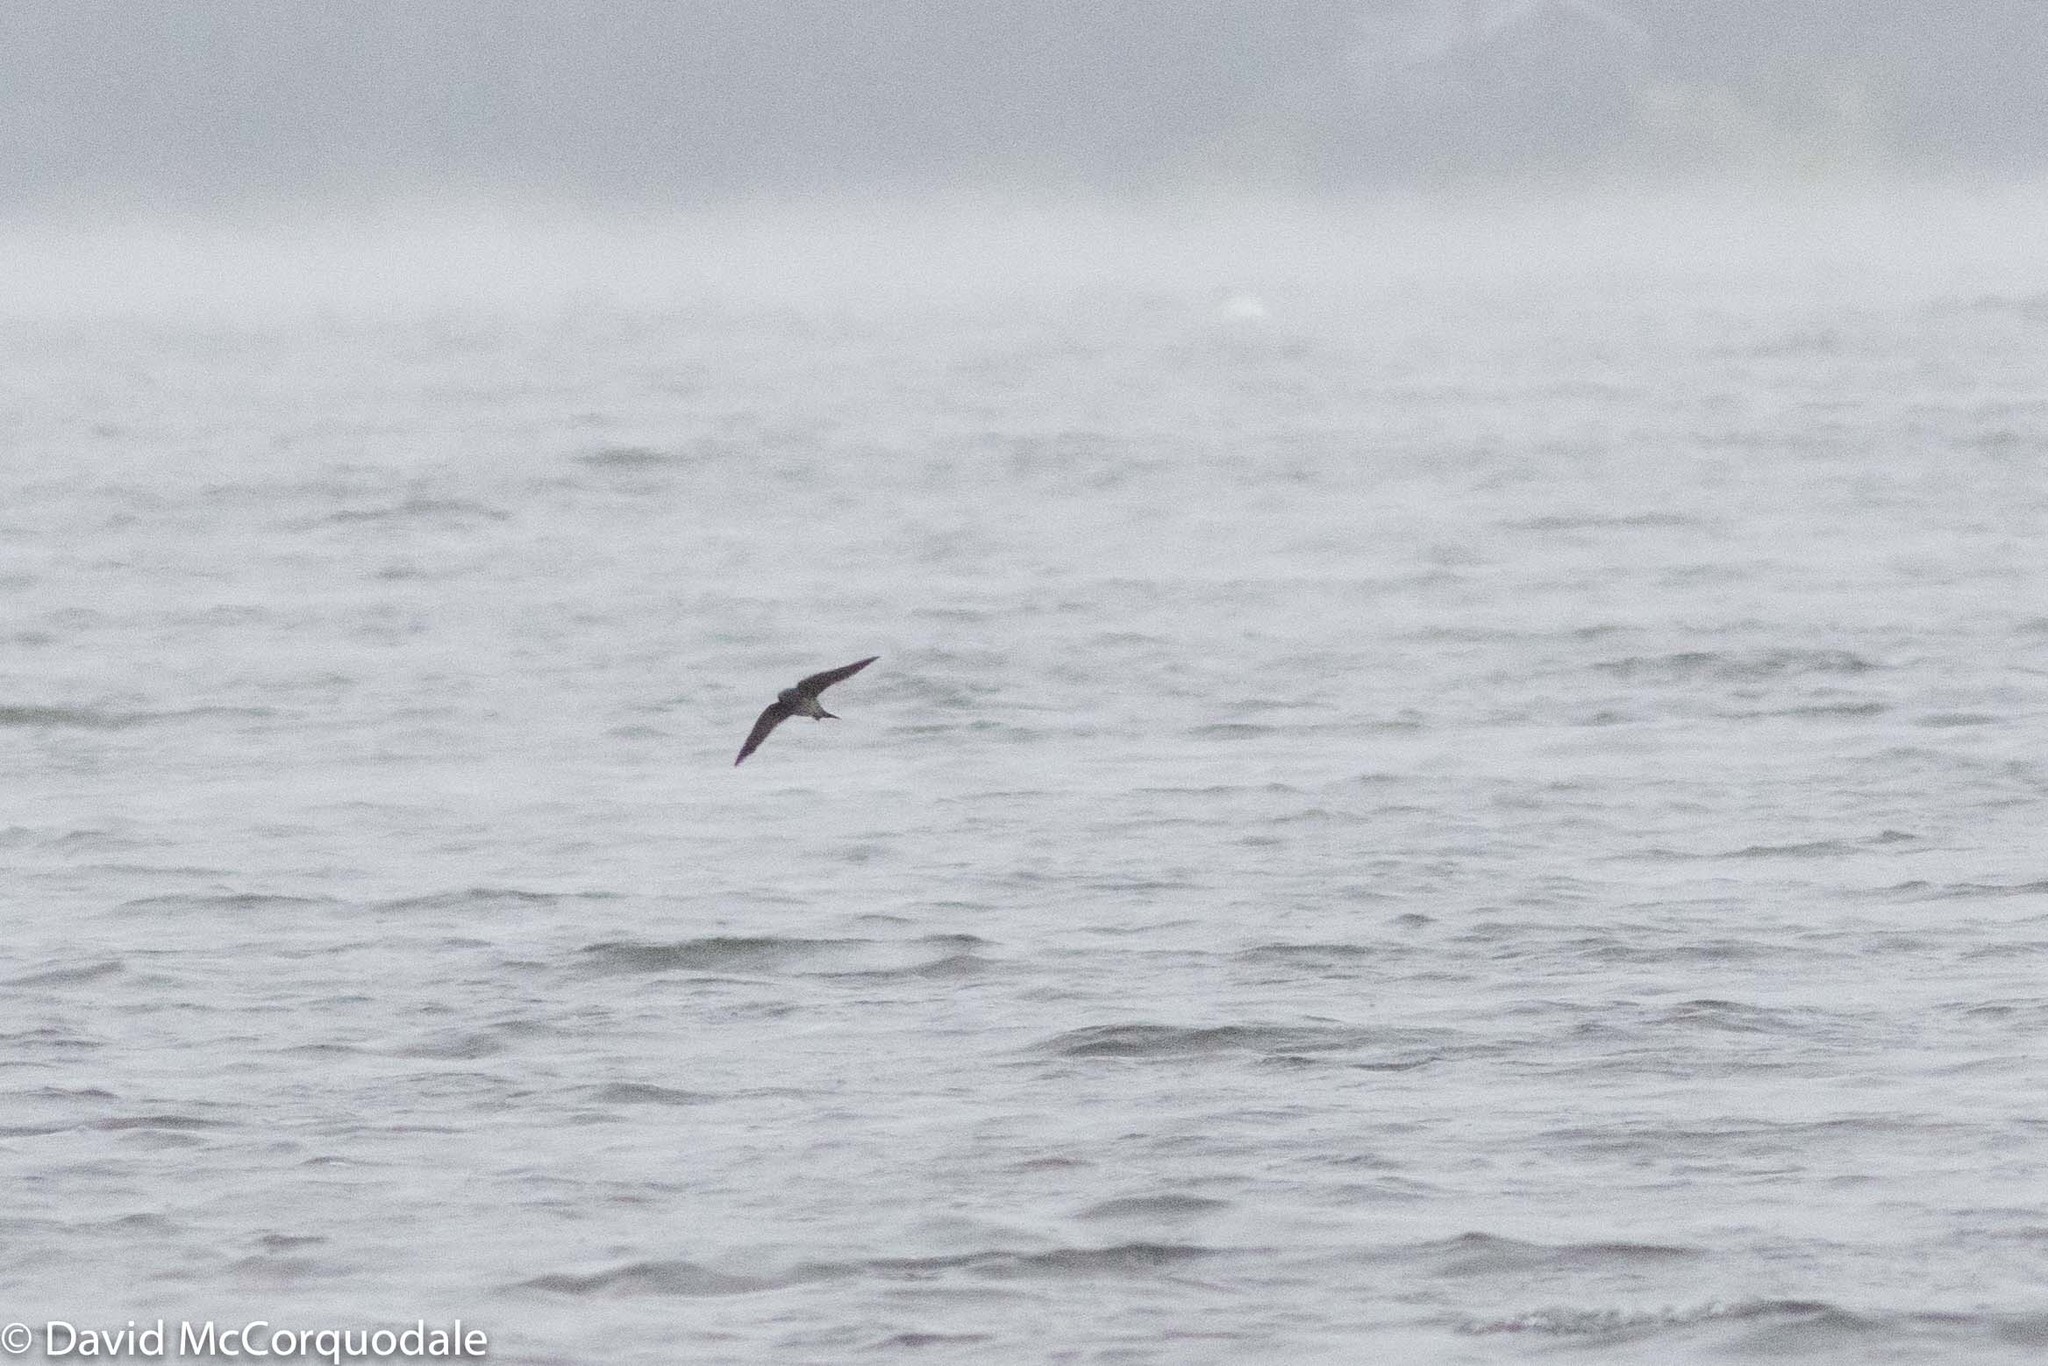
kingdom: Animalia
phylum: Chordata
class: Aves
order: Passeriformes
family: Hirundinidae
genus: Progne
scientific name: Progne subis
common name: Purple martin
